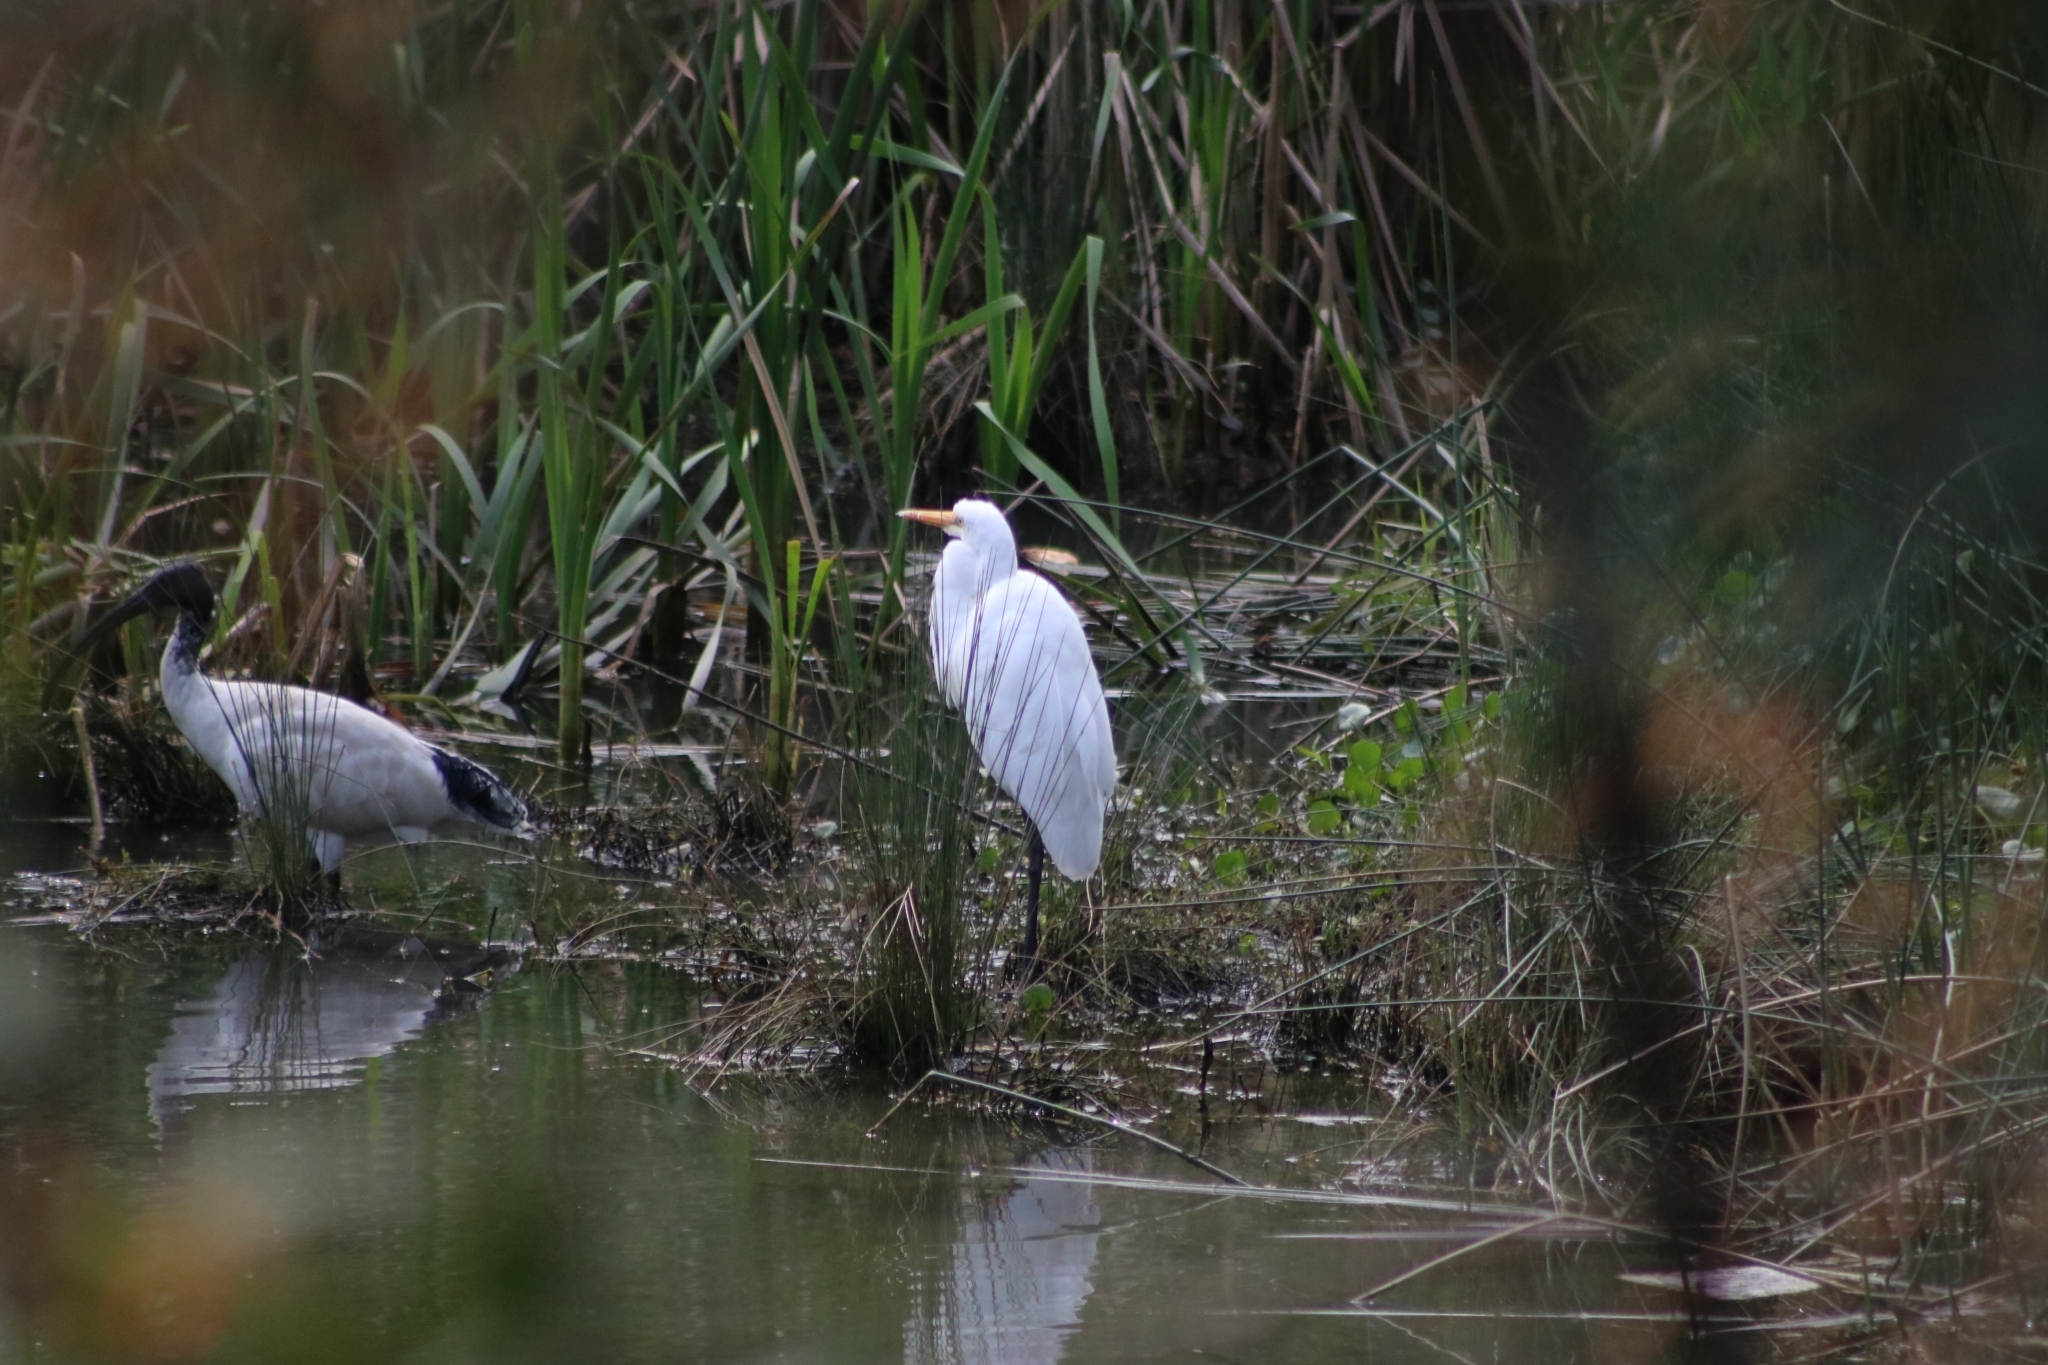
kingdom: Animalia
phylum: Chordata
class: Aves
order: Pelecaniformes
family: Ardeidae
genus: Ardea
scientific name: Ardea alba
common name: Great egret
